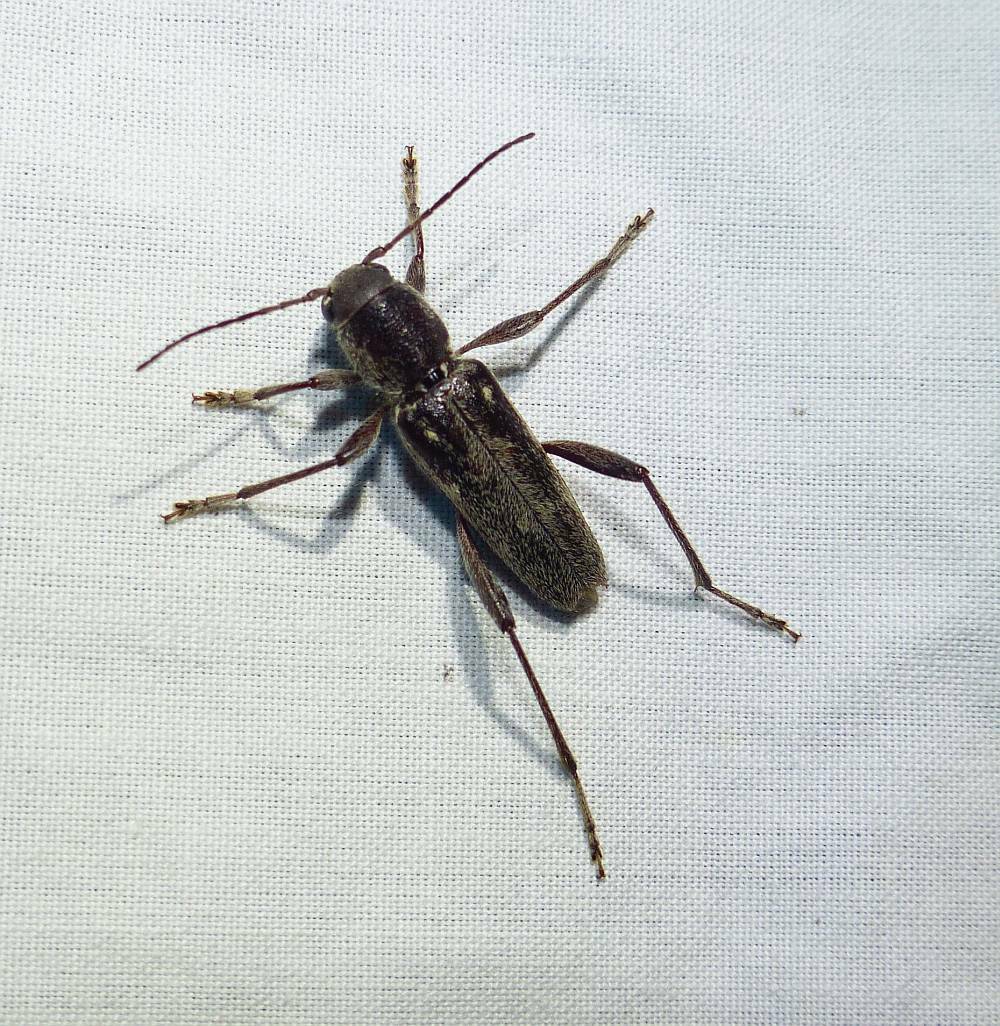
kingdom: Animalia
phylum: Arthropoda
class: Insecta
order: Coleoptera
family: Cerambycidae
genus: Xylotrechus
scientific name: Xylotrechus sagittatus
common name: Arrowhead borer
